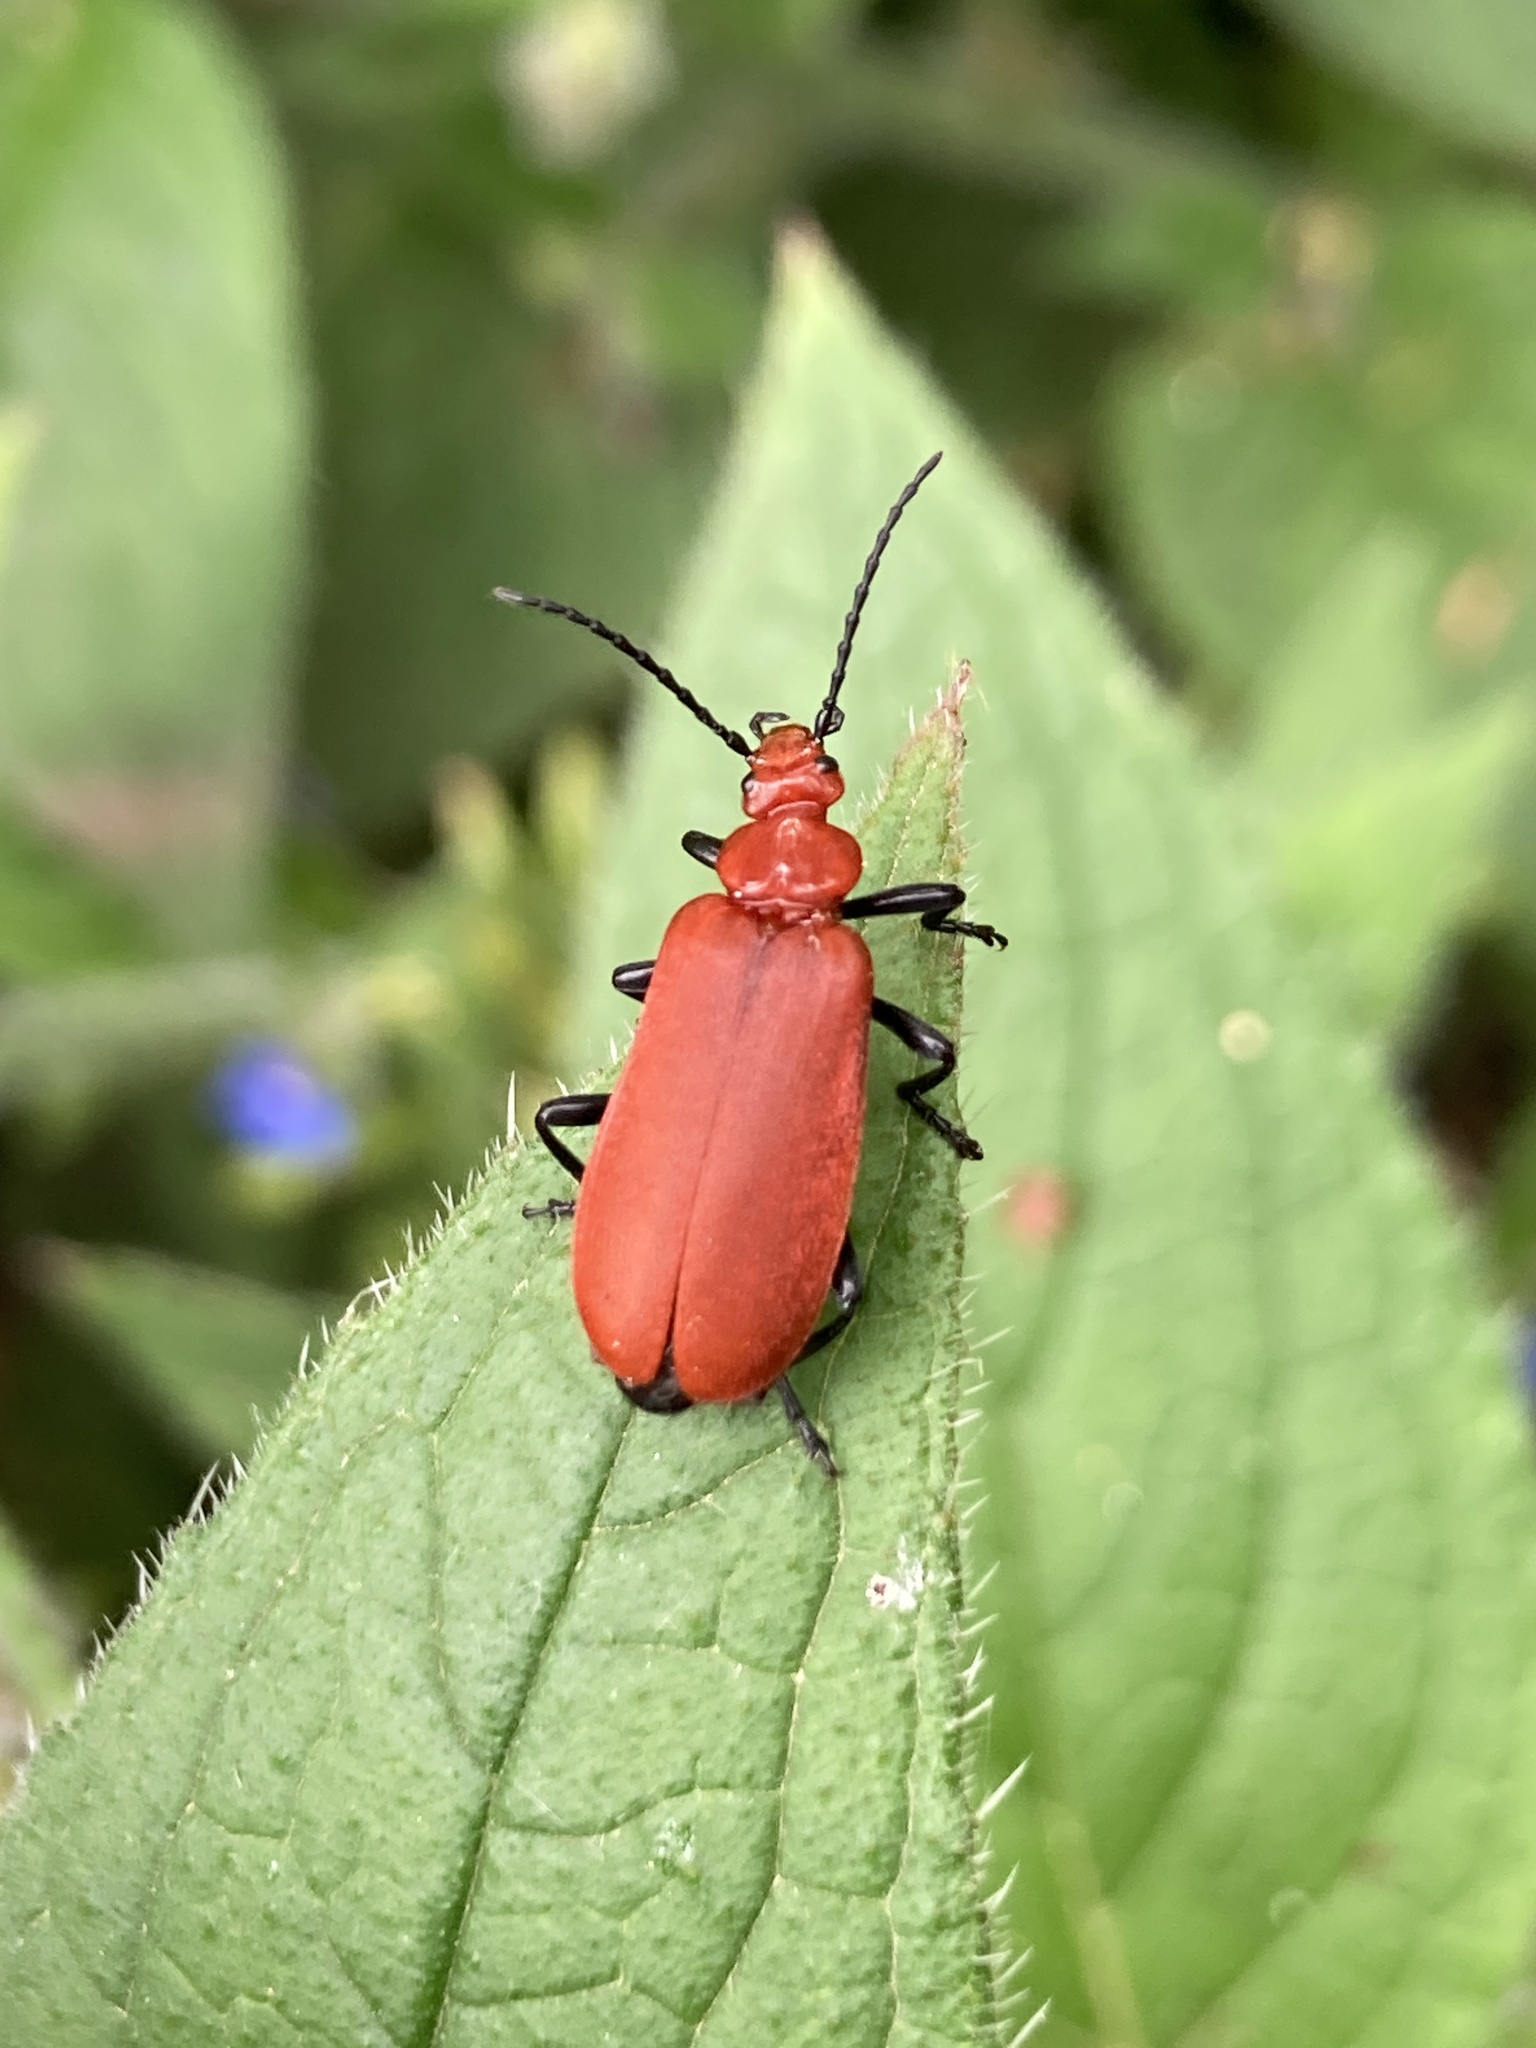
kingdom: Animalia
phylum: Arthropoda
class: Insecta
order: Coleoptera
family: Pyrochroidae
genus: Pyrochroa
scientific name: Pyrochroa serraticornis
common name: Red-headed cardinal beetle
